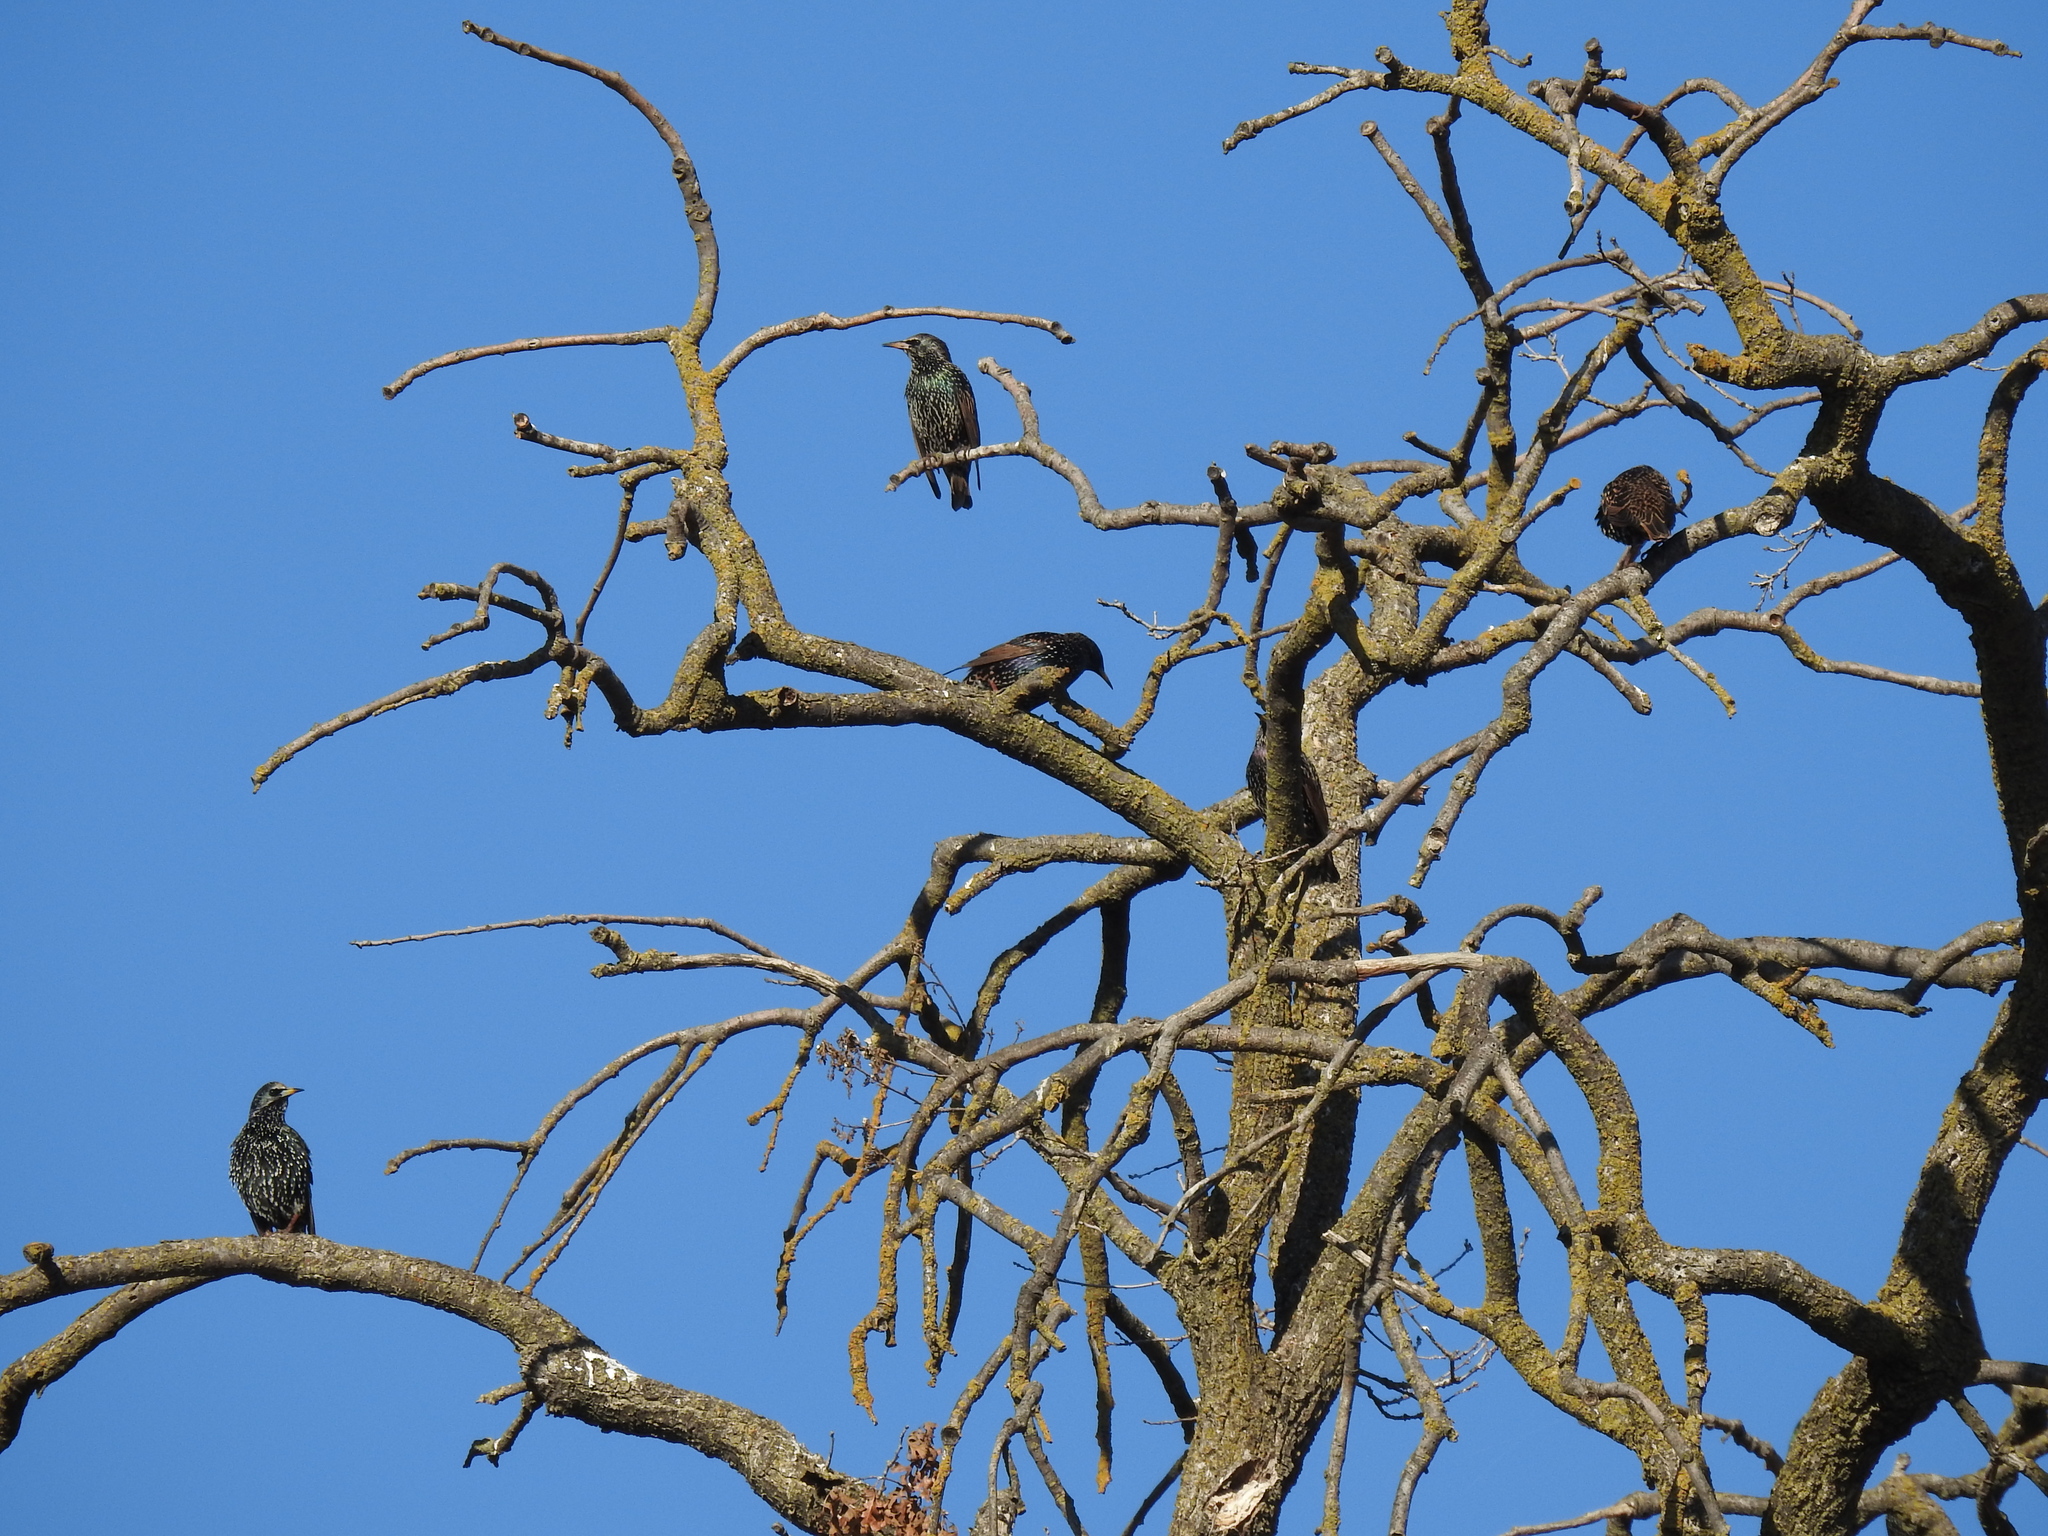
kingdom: Animalia
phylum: Chordata
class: Aves
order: Passeriformes
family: Sturnidae
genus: Sturnus
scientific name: Sturnus vulgaris
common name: Common starling
